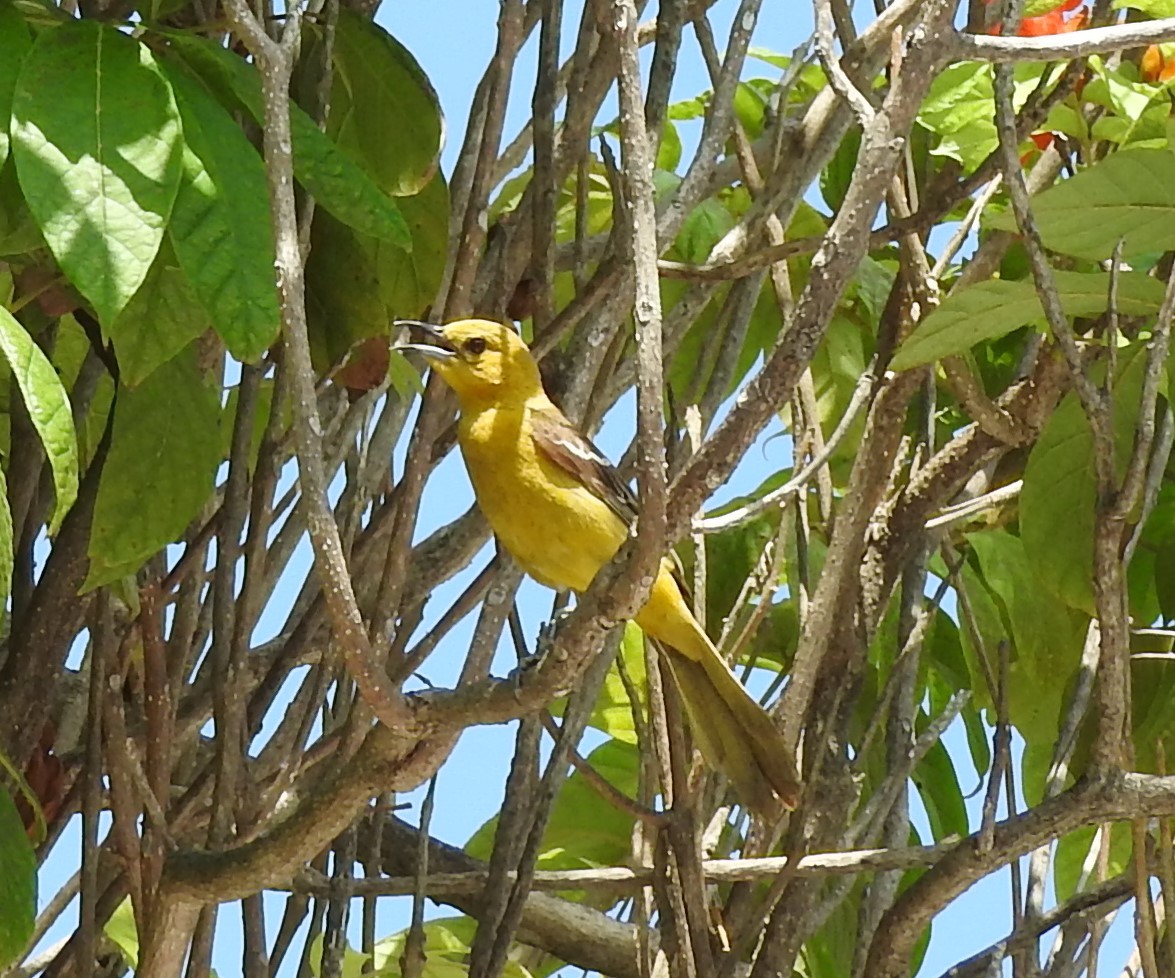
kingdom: Animalia
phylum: Chordata
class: Aves
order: Passeriformes
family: Icteridae
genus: Icterus
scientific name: Icterus cucullatus
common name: Hooded oriole
